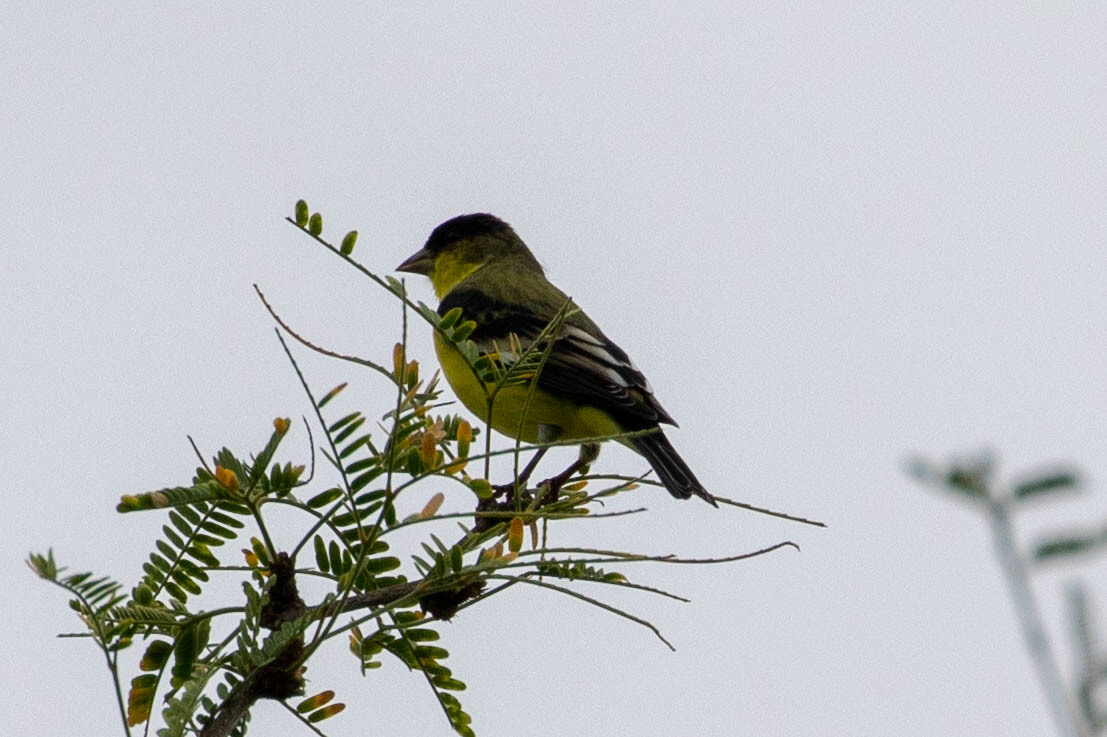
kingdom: Animalia
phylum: Chordata
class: Aves
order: Passeriformes
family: Fringillidae
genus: Spinus
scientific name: Spinus psaltria
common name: Lesser goldfinch
